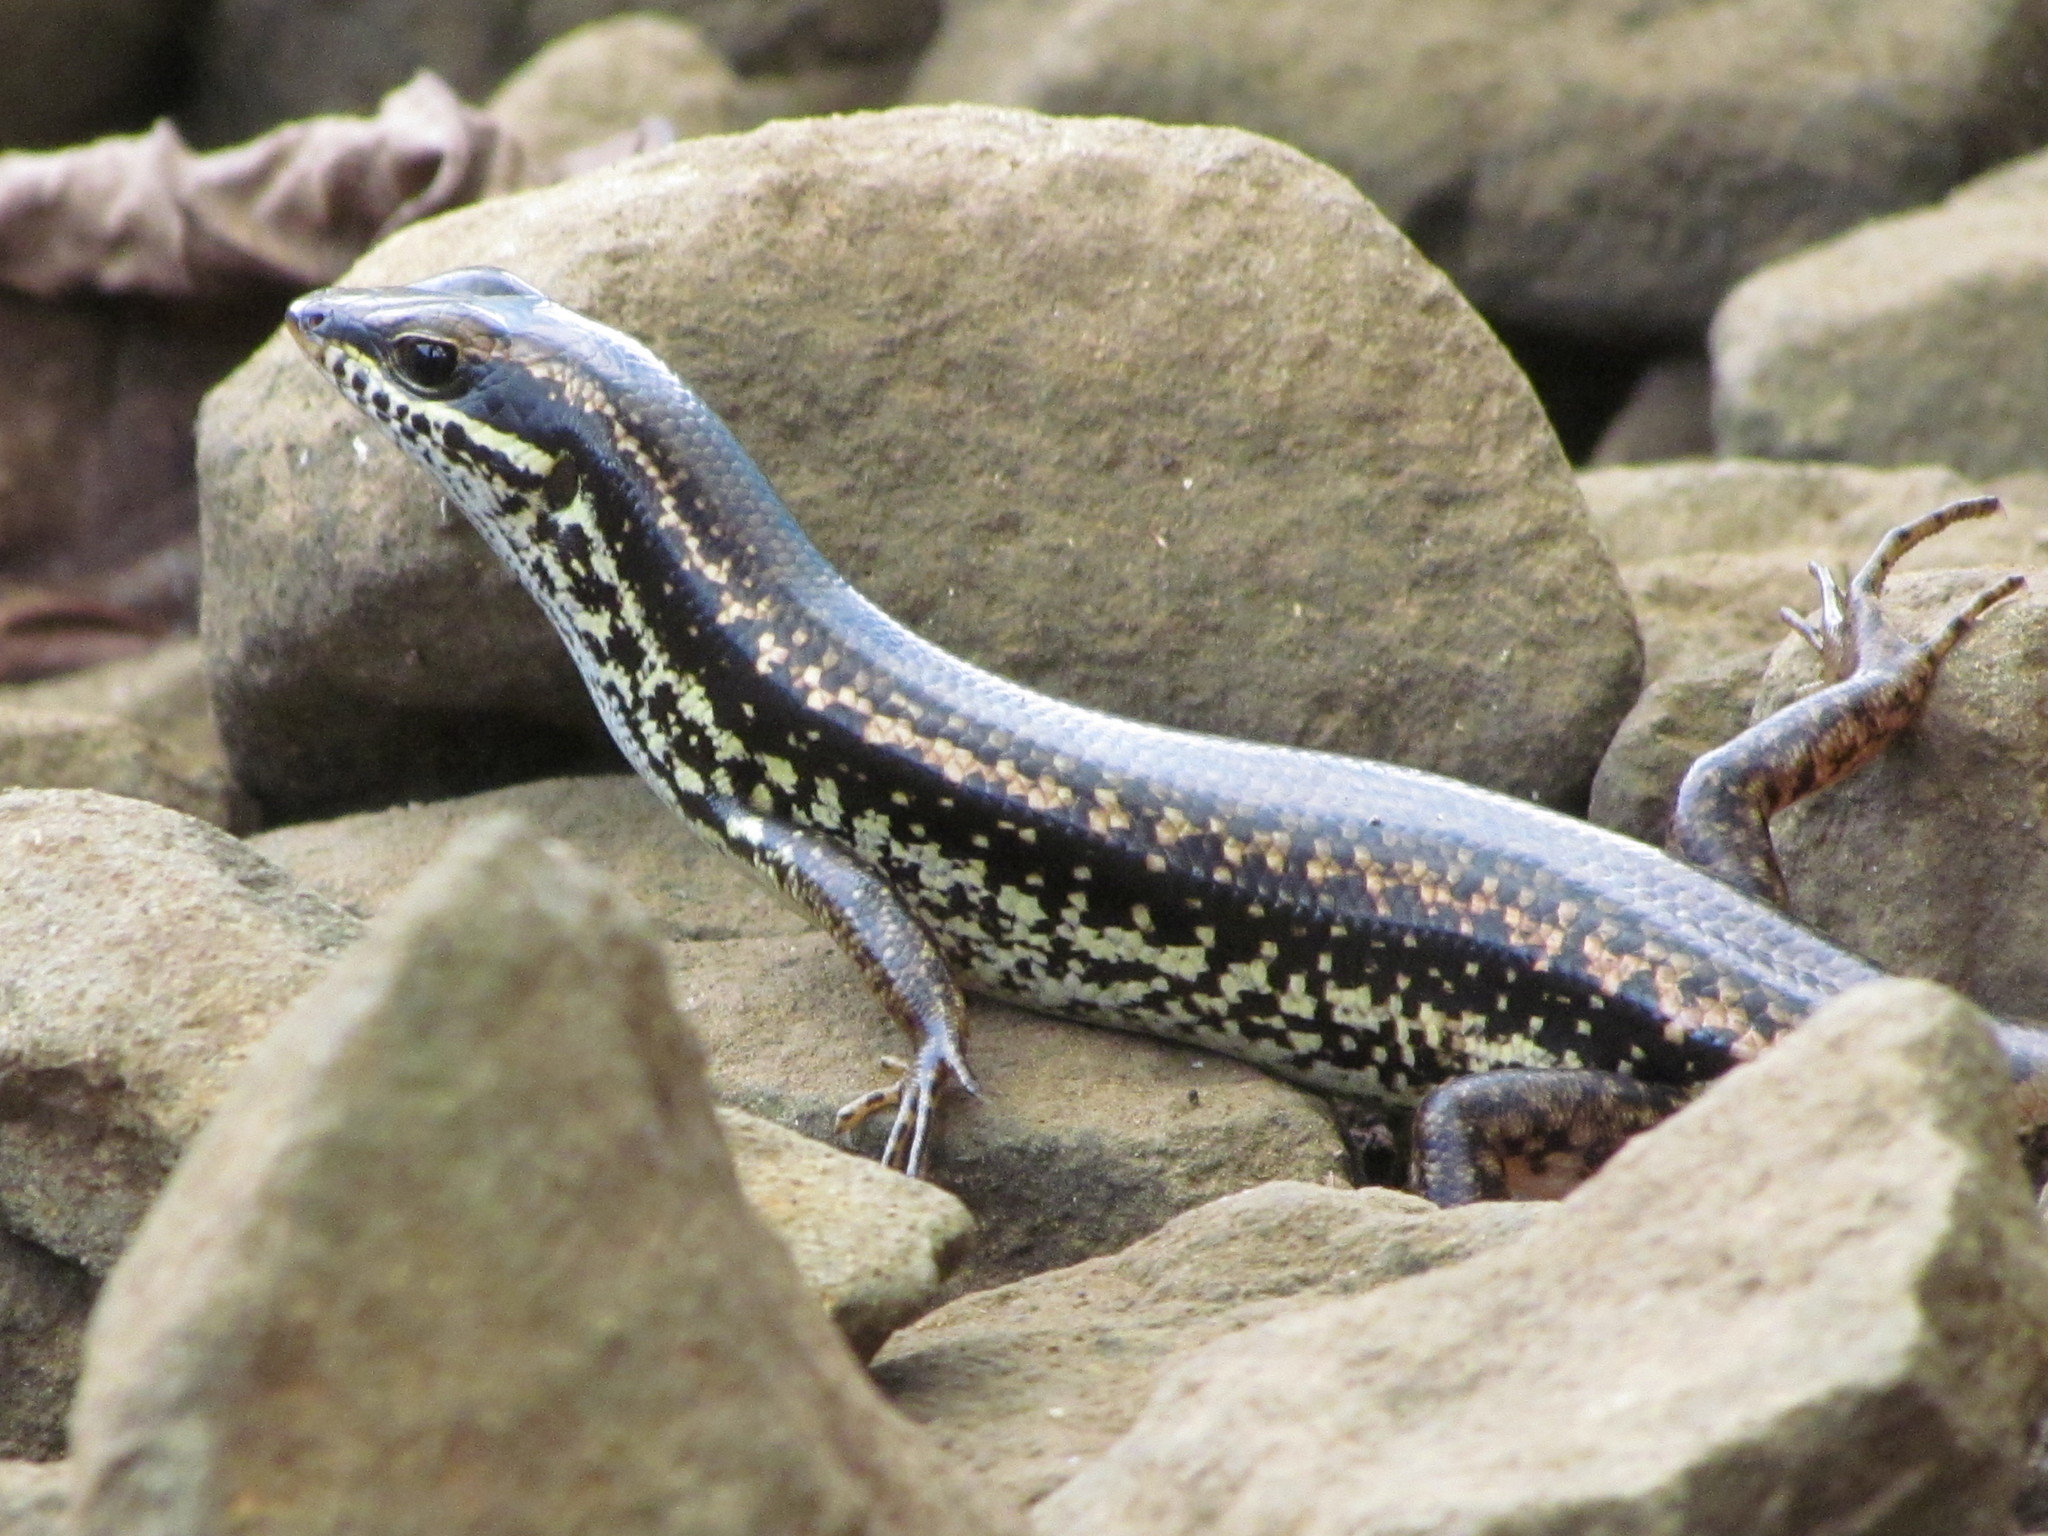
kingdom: Animalia
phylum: Chordata
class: Squamata
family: Scincidae
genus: Sphenomorphus
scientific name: Sphenomorphus incognitus
